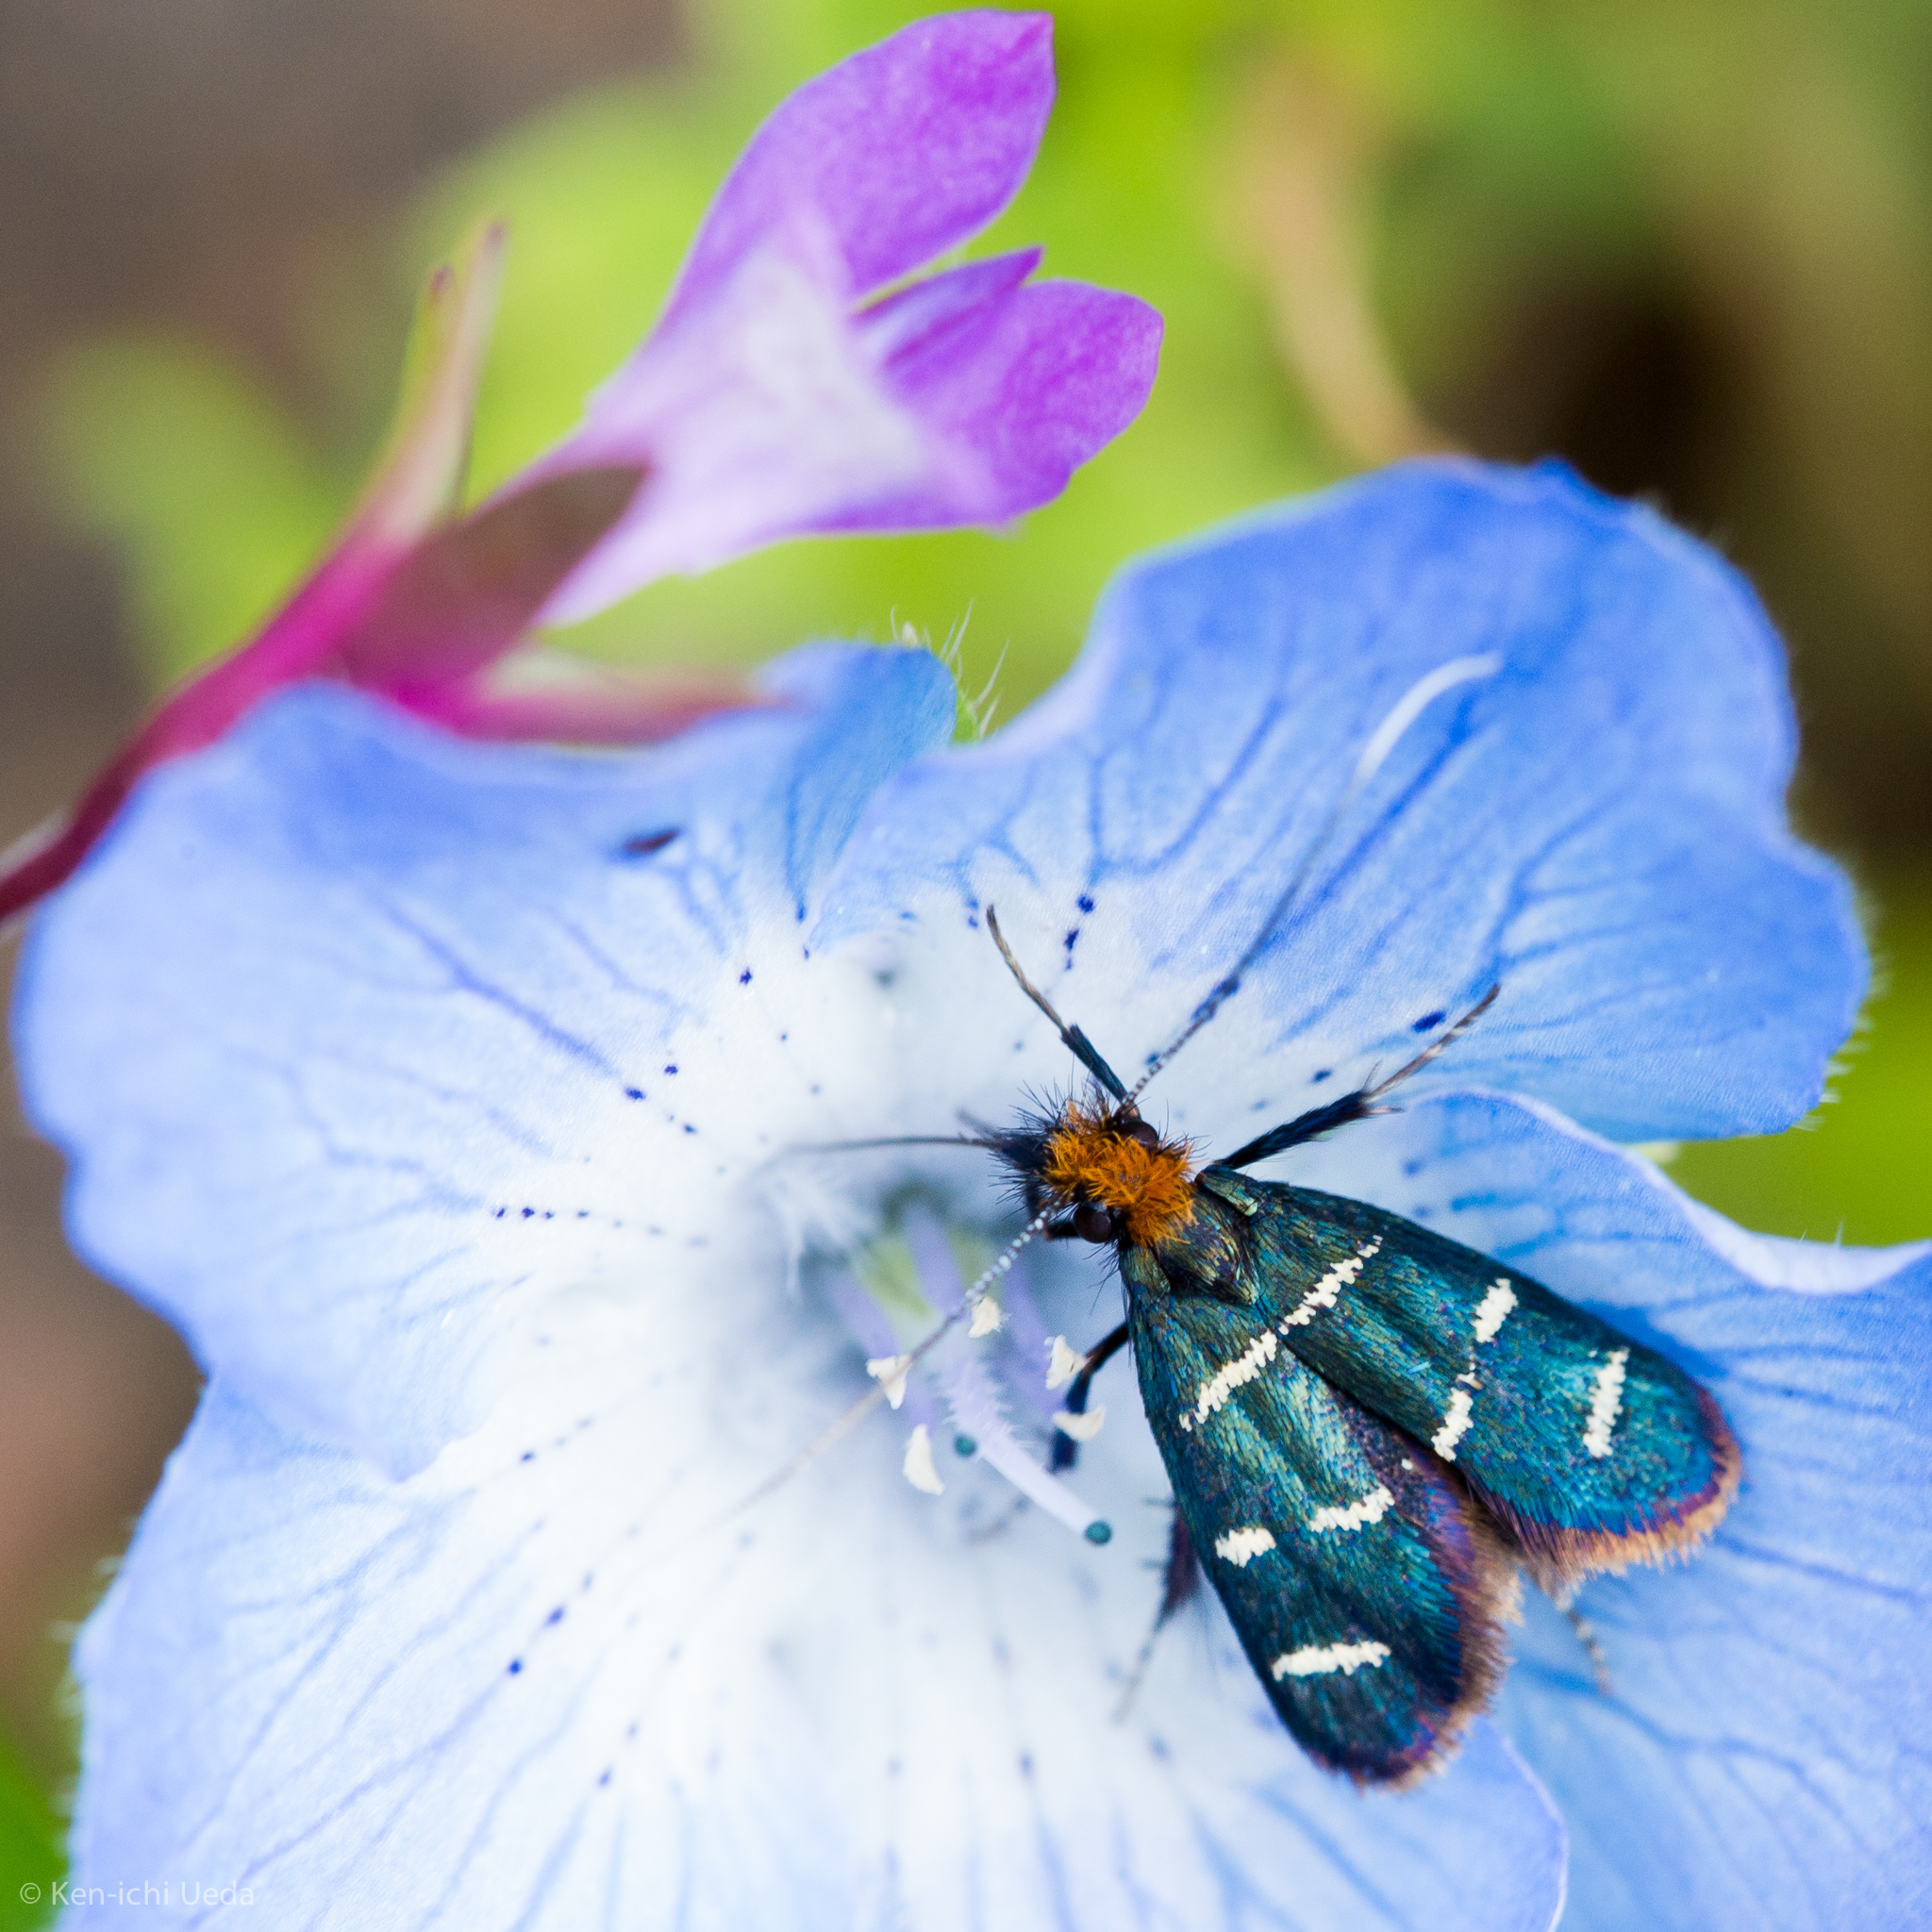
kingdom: Animalia
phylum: Arthropoda
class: Insecta
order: Lepidoptera
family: Adelidae
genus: Adela
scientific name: Adela trigrapha
